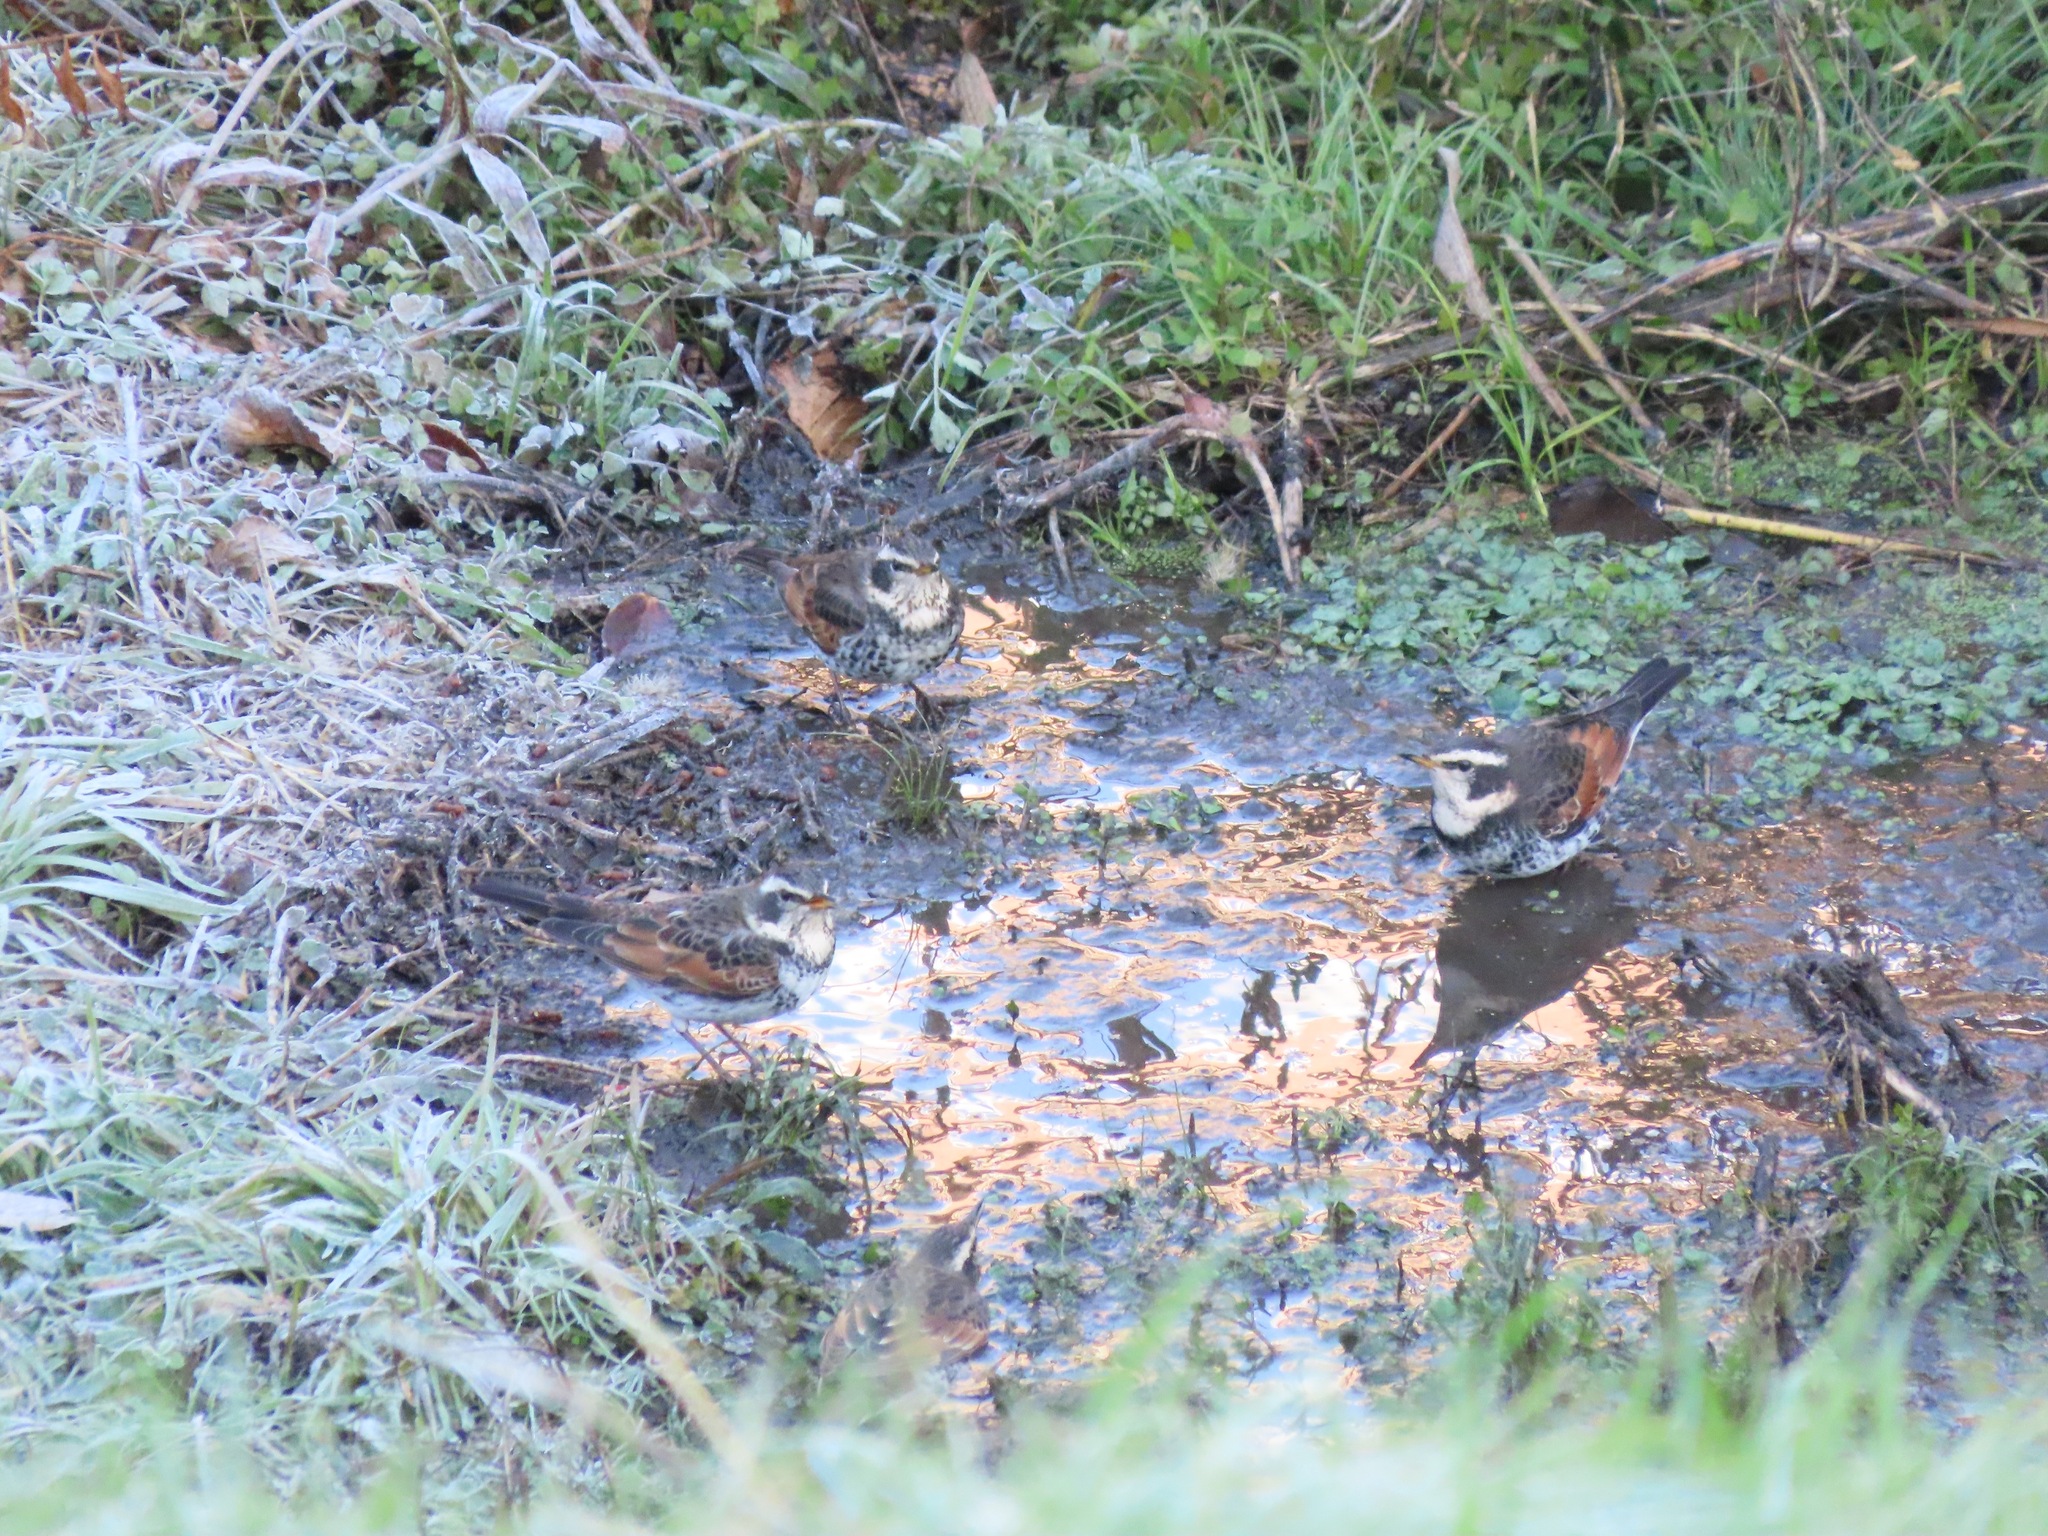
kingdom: Animalia
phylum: Chordata
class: Aves
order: Passeriformes
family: Turdidae
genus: Turdus
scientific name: Turdus eunomus
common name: Dusky thrush
